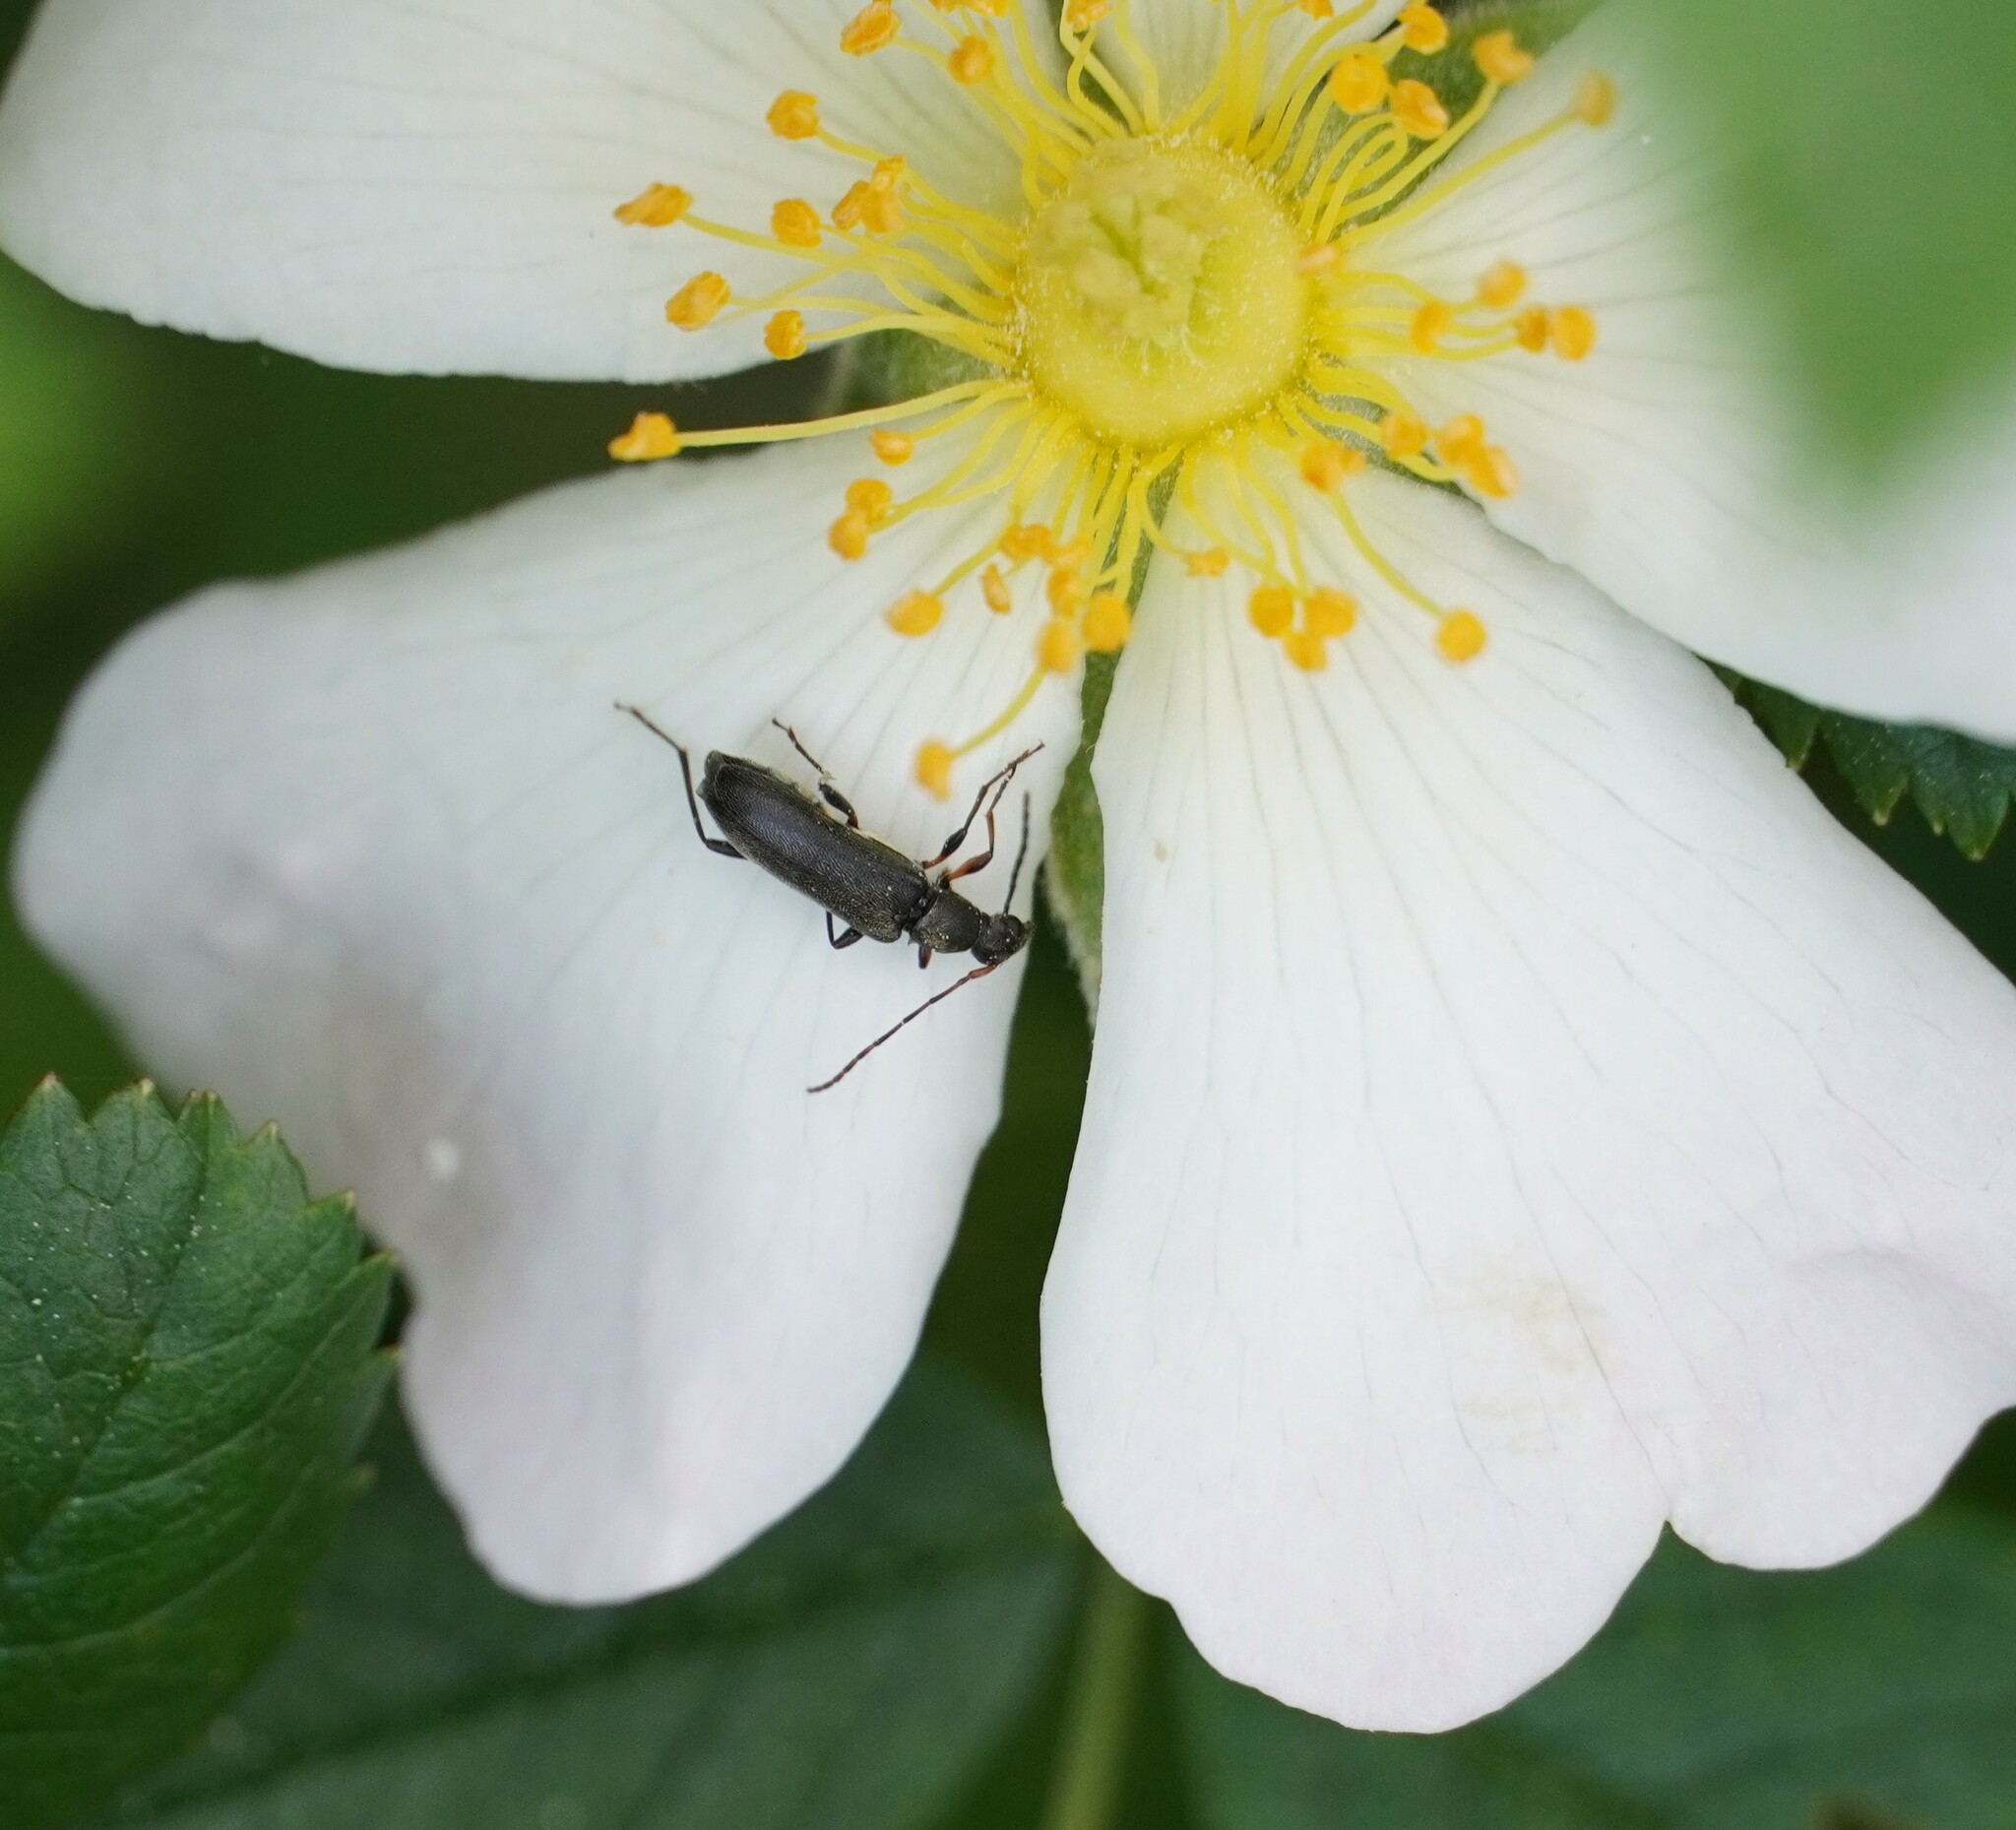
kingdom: Animalia
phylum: Arthropoda
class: Insecta
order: Coleoptera
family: Cerambycidae
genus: Grammoptera
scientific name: Grammoptera ruficornis
